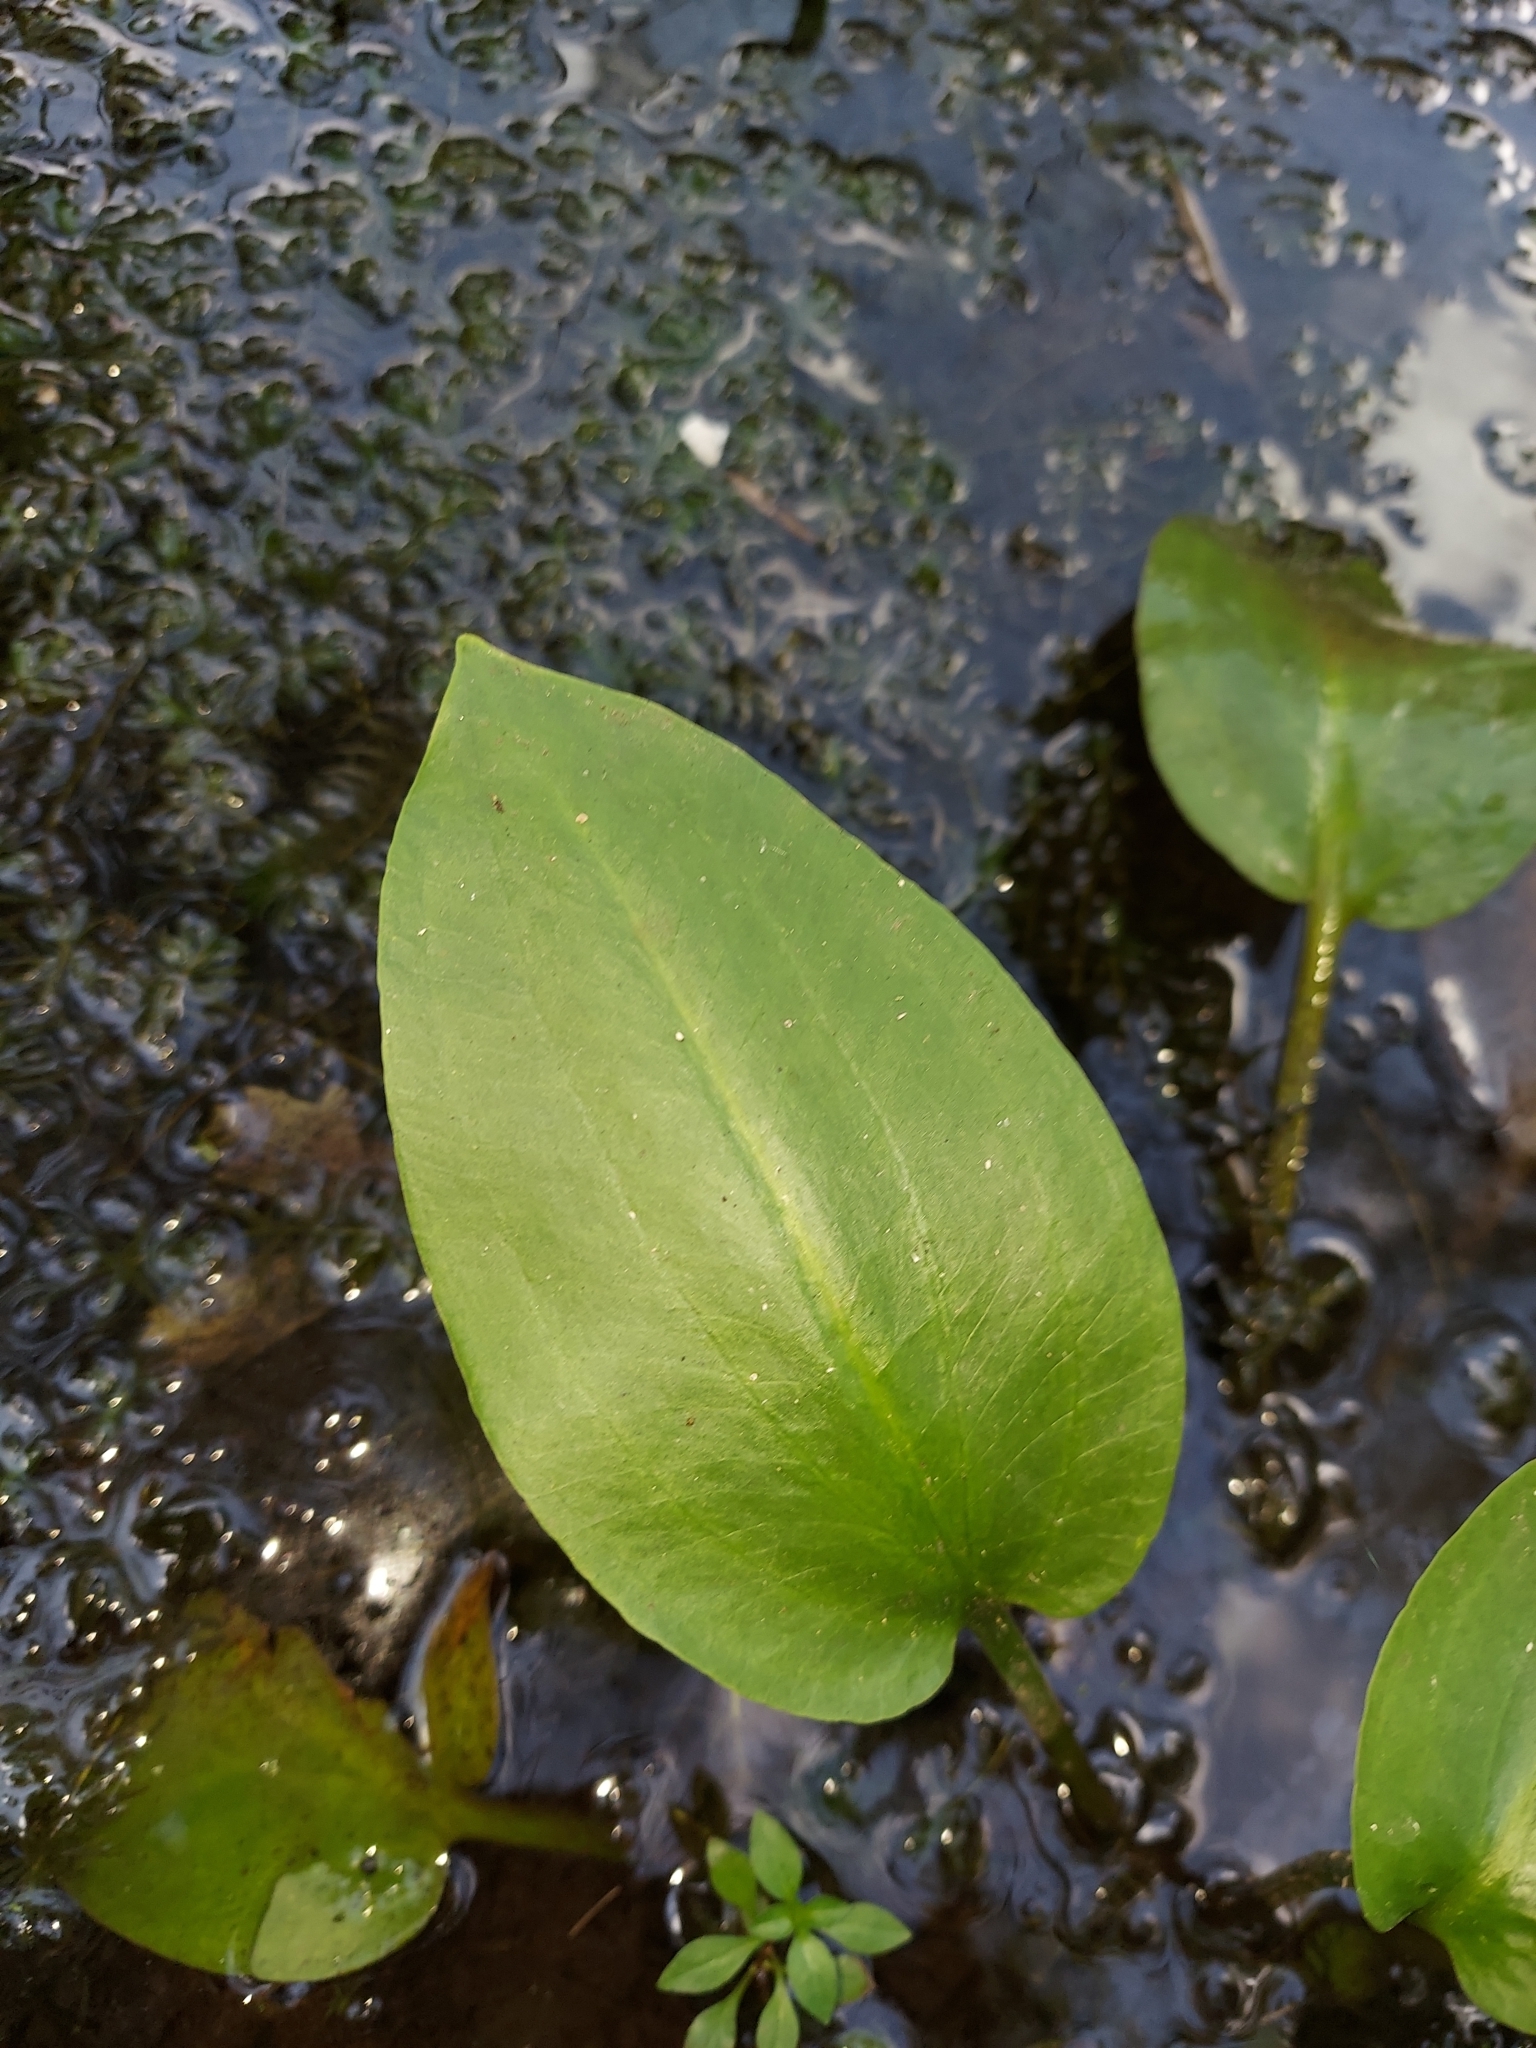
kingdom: Plantae
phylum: Tracheophyta
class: Liliopsida
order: Alismatales
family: Alismataceae
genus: Alisma
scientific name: Alisma subcordatum
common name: Southern water-plantain
